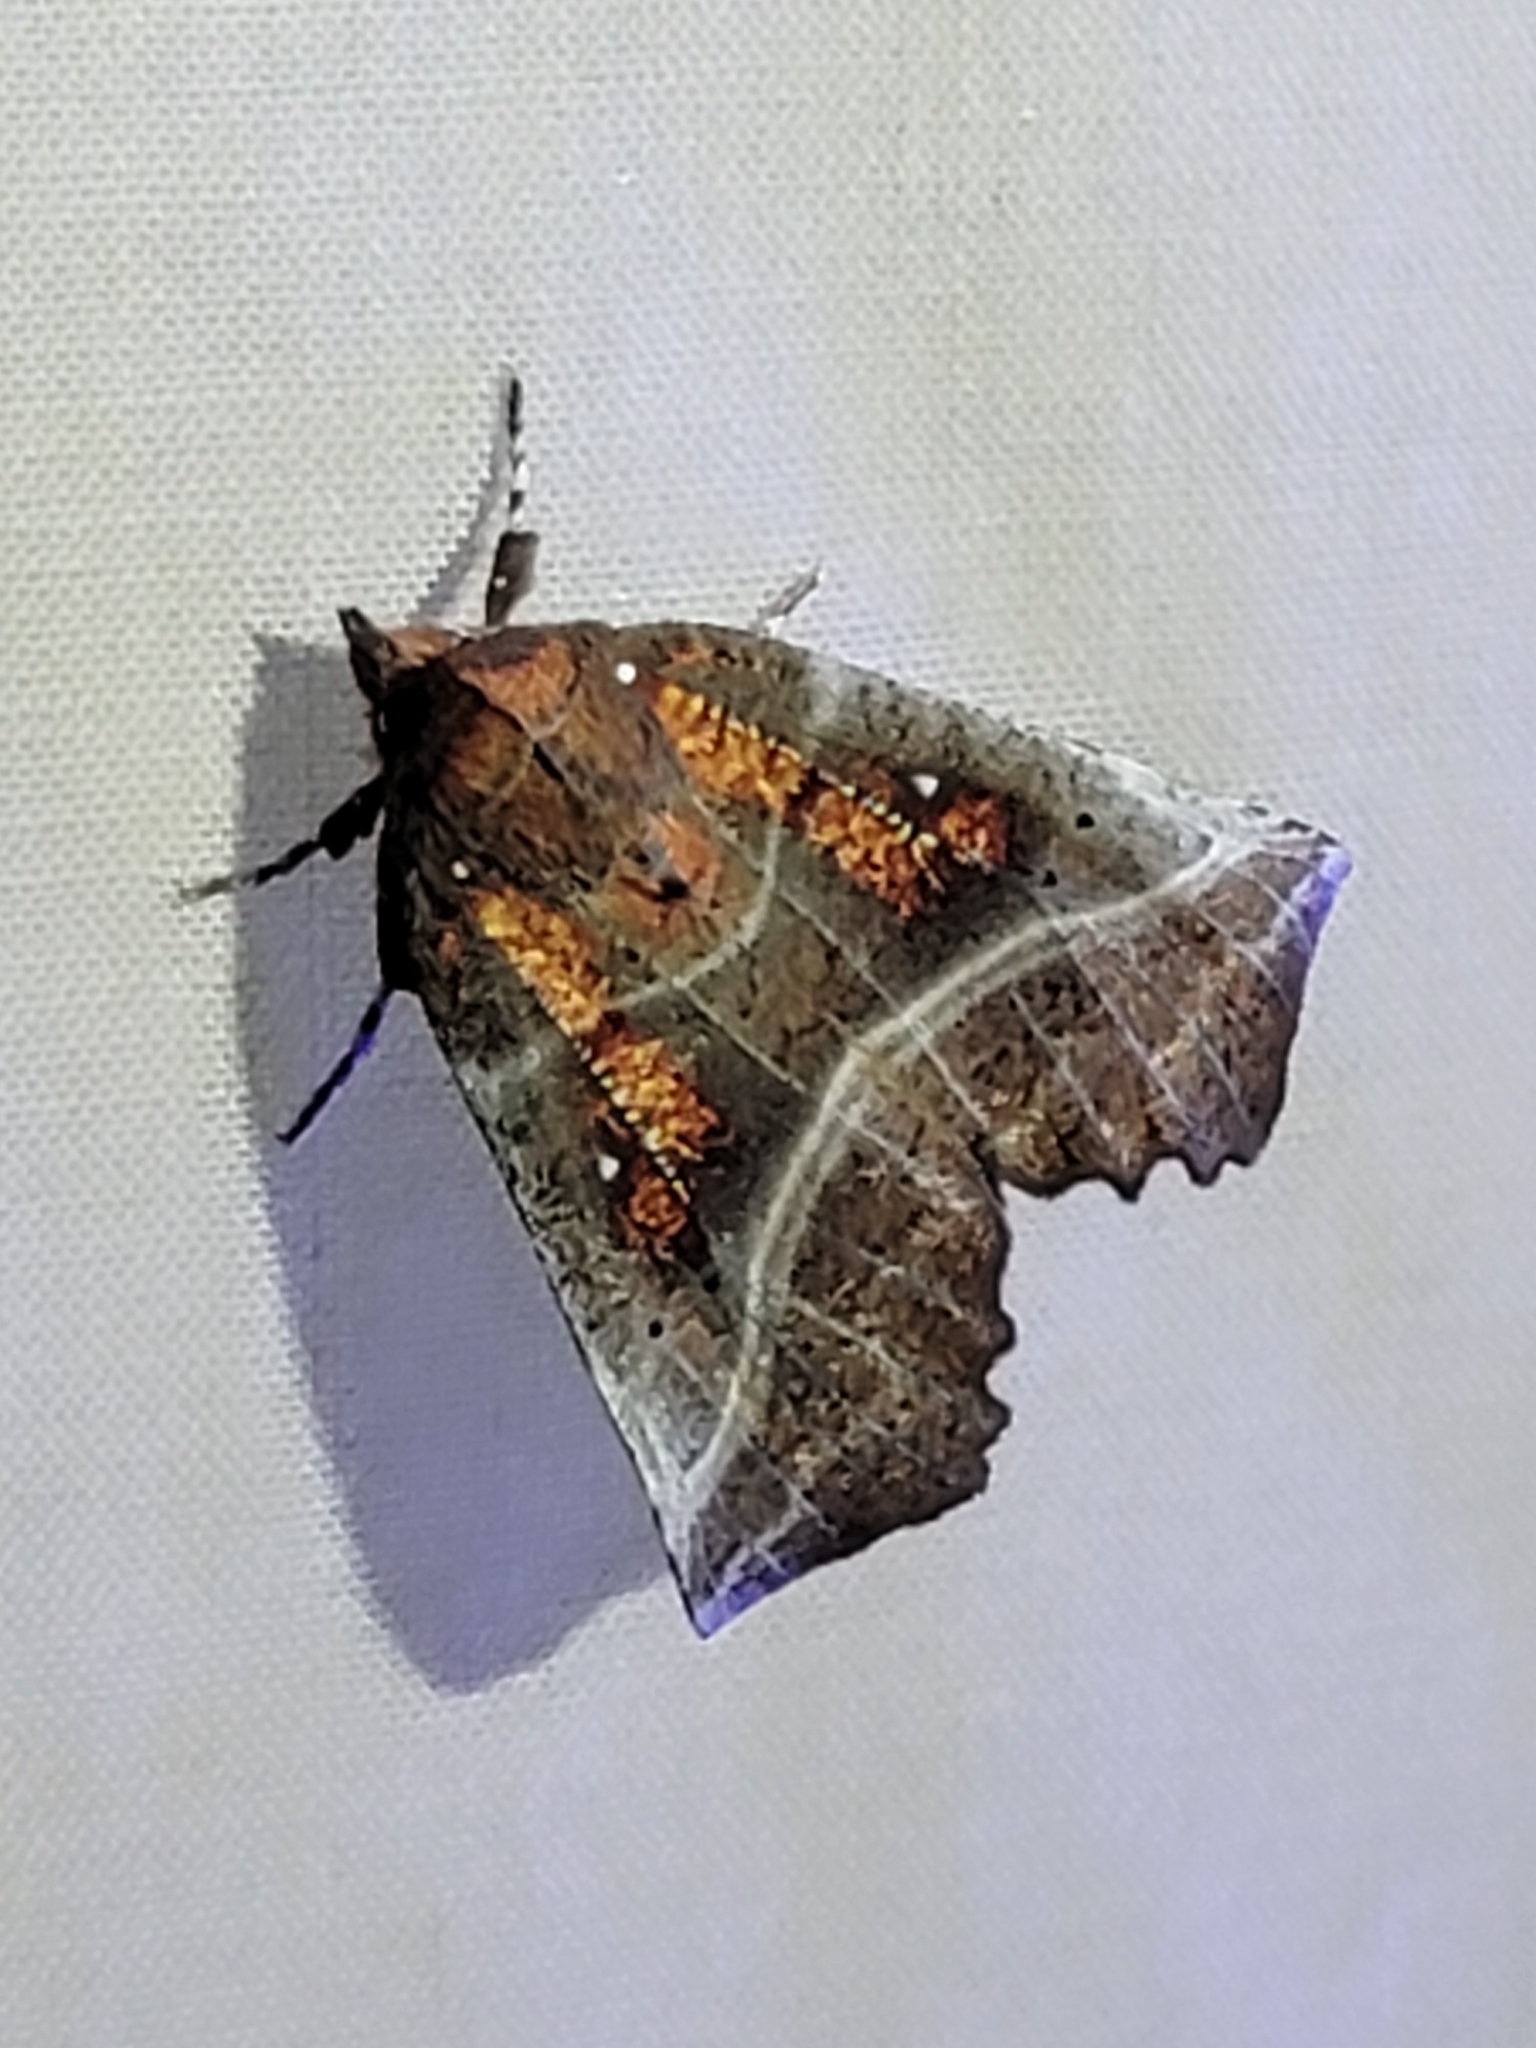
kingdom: Animalia
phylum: Arthropoda
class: Insecta
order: Lepidoptera
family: Erebidae
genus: Scoliopteryx
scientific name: Scoliopteryx libatrix
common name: Herald
